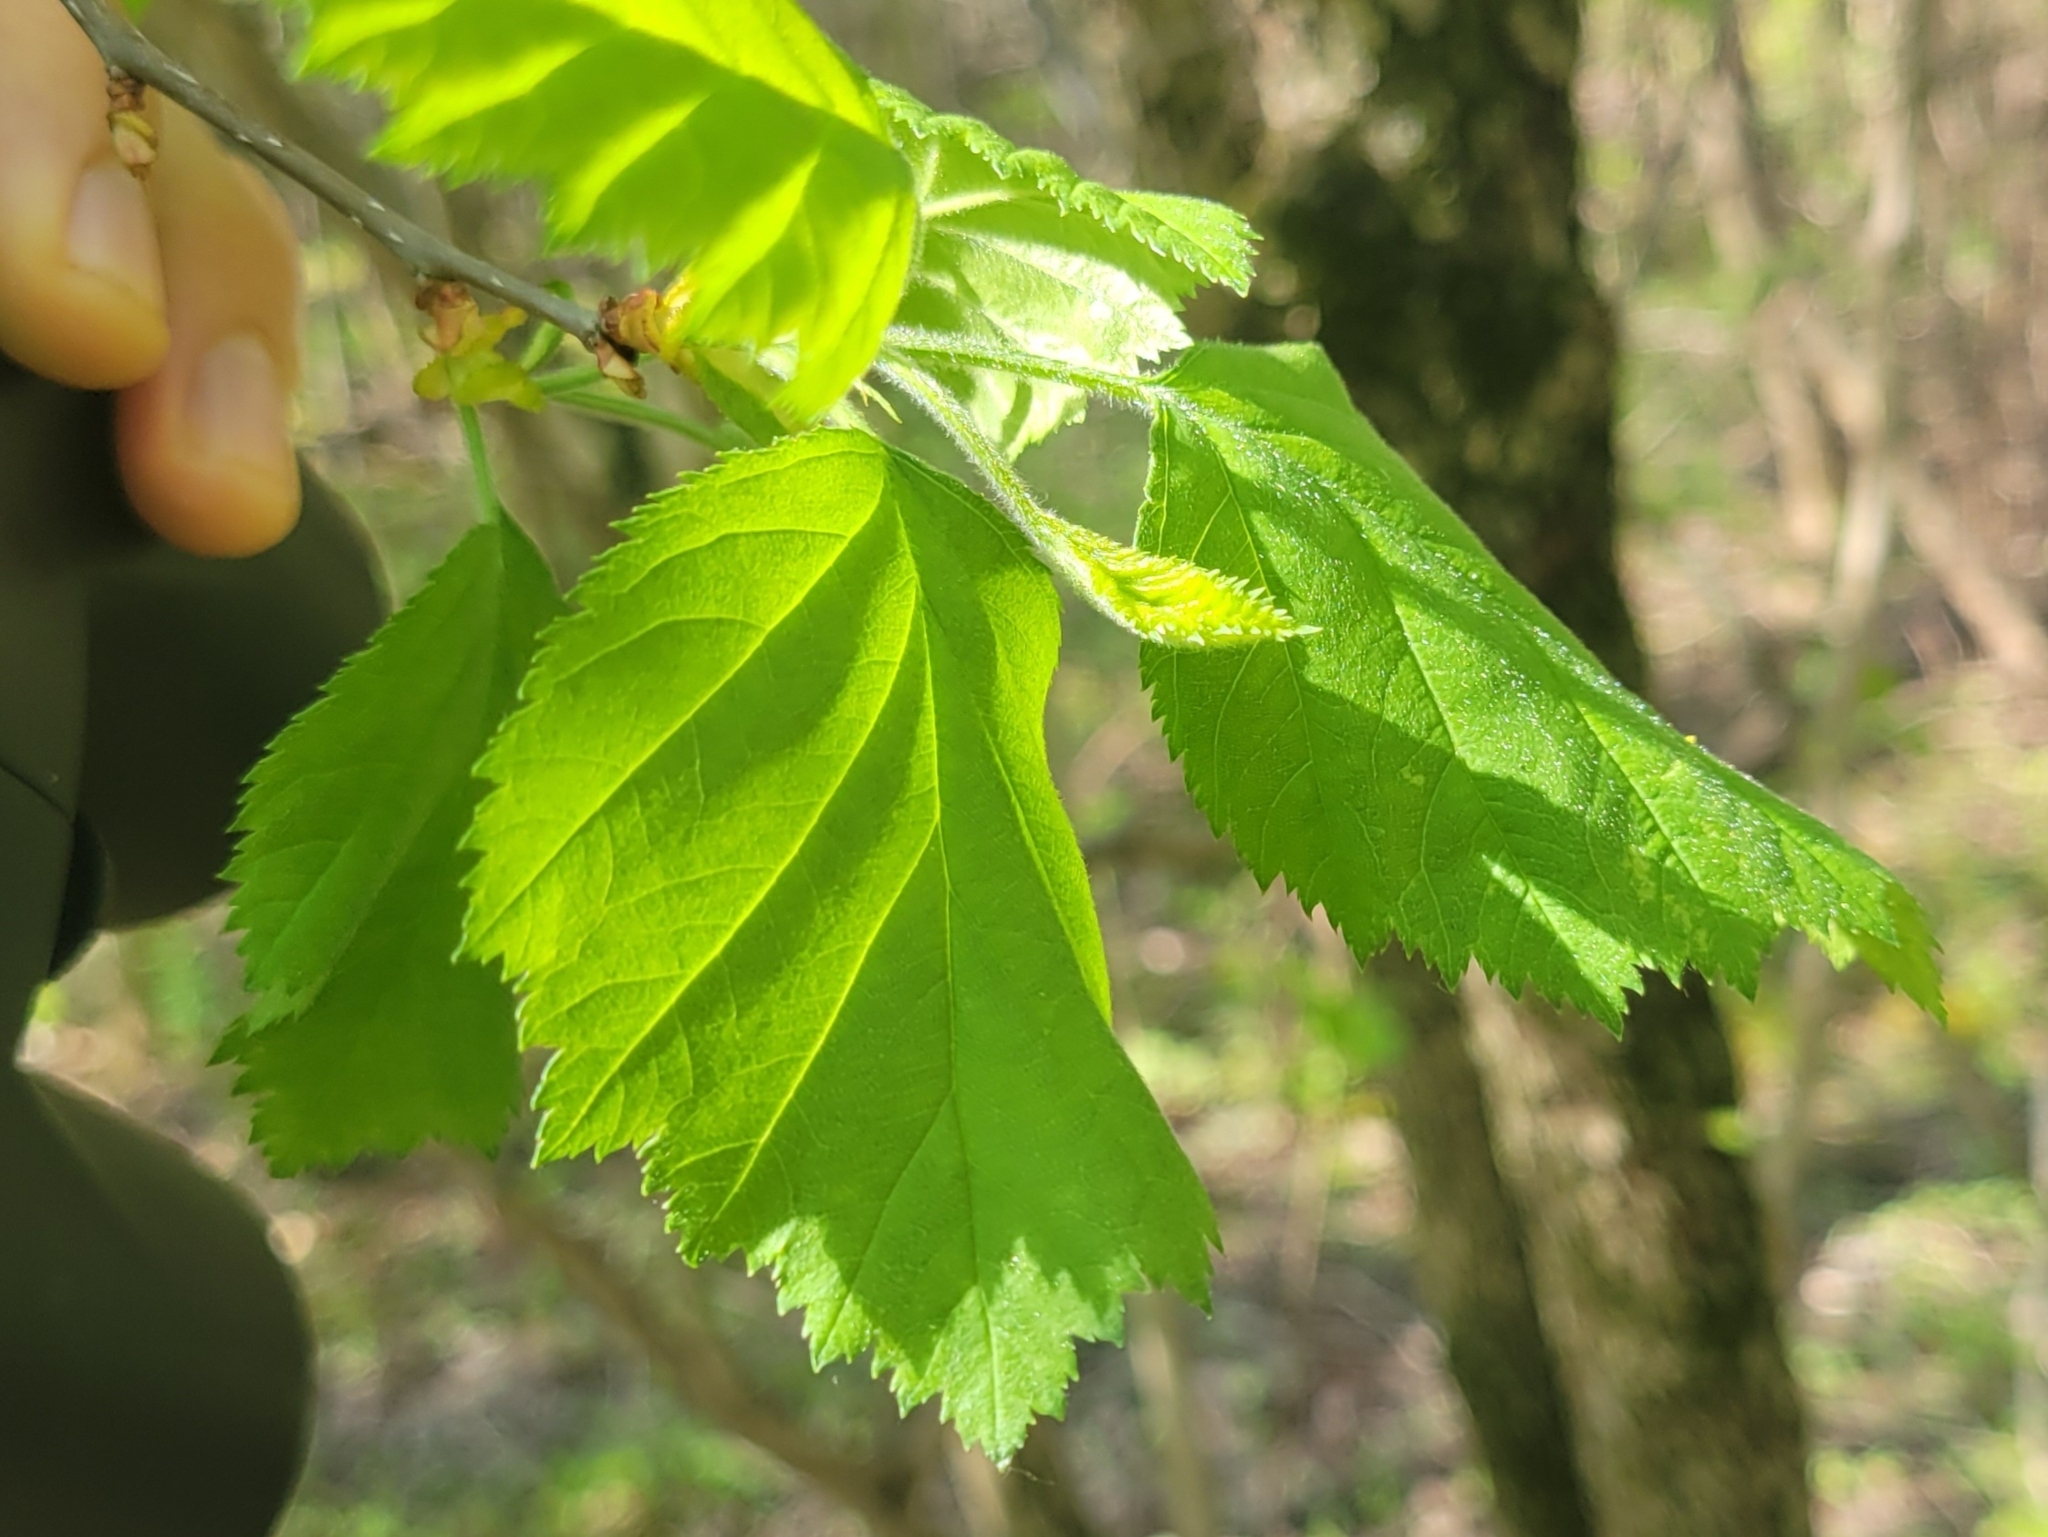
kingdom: Plantae
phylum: Tracheophyta
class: Magnoliopsida
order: Rosales
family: Rosaceae
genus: Crataegus
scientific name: Crataegus submollis
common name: Hairy cockspurthorn
